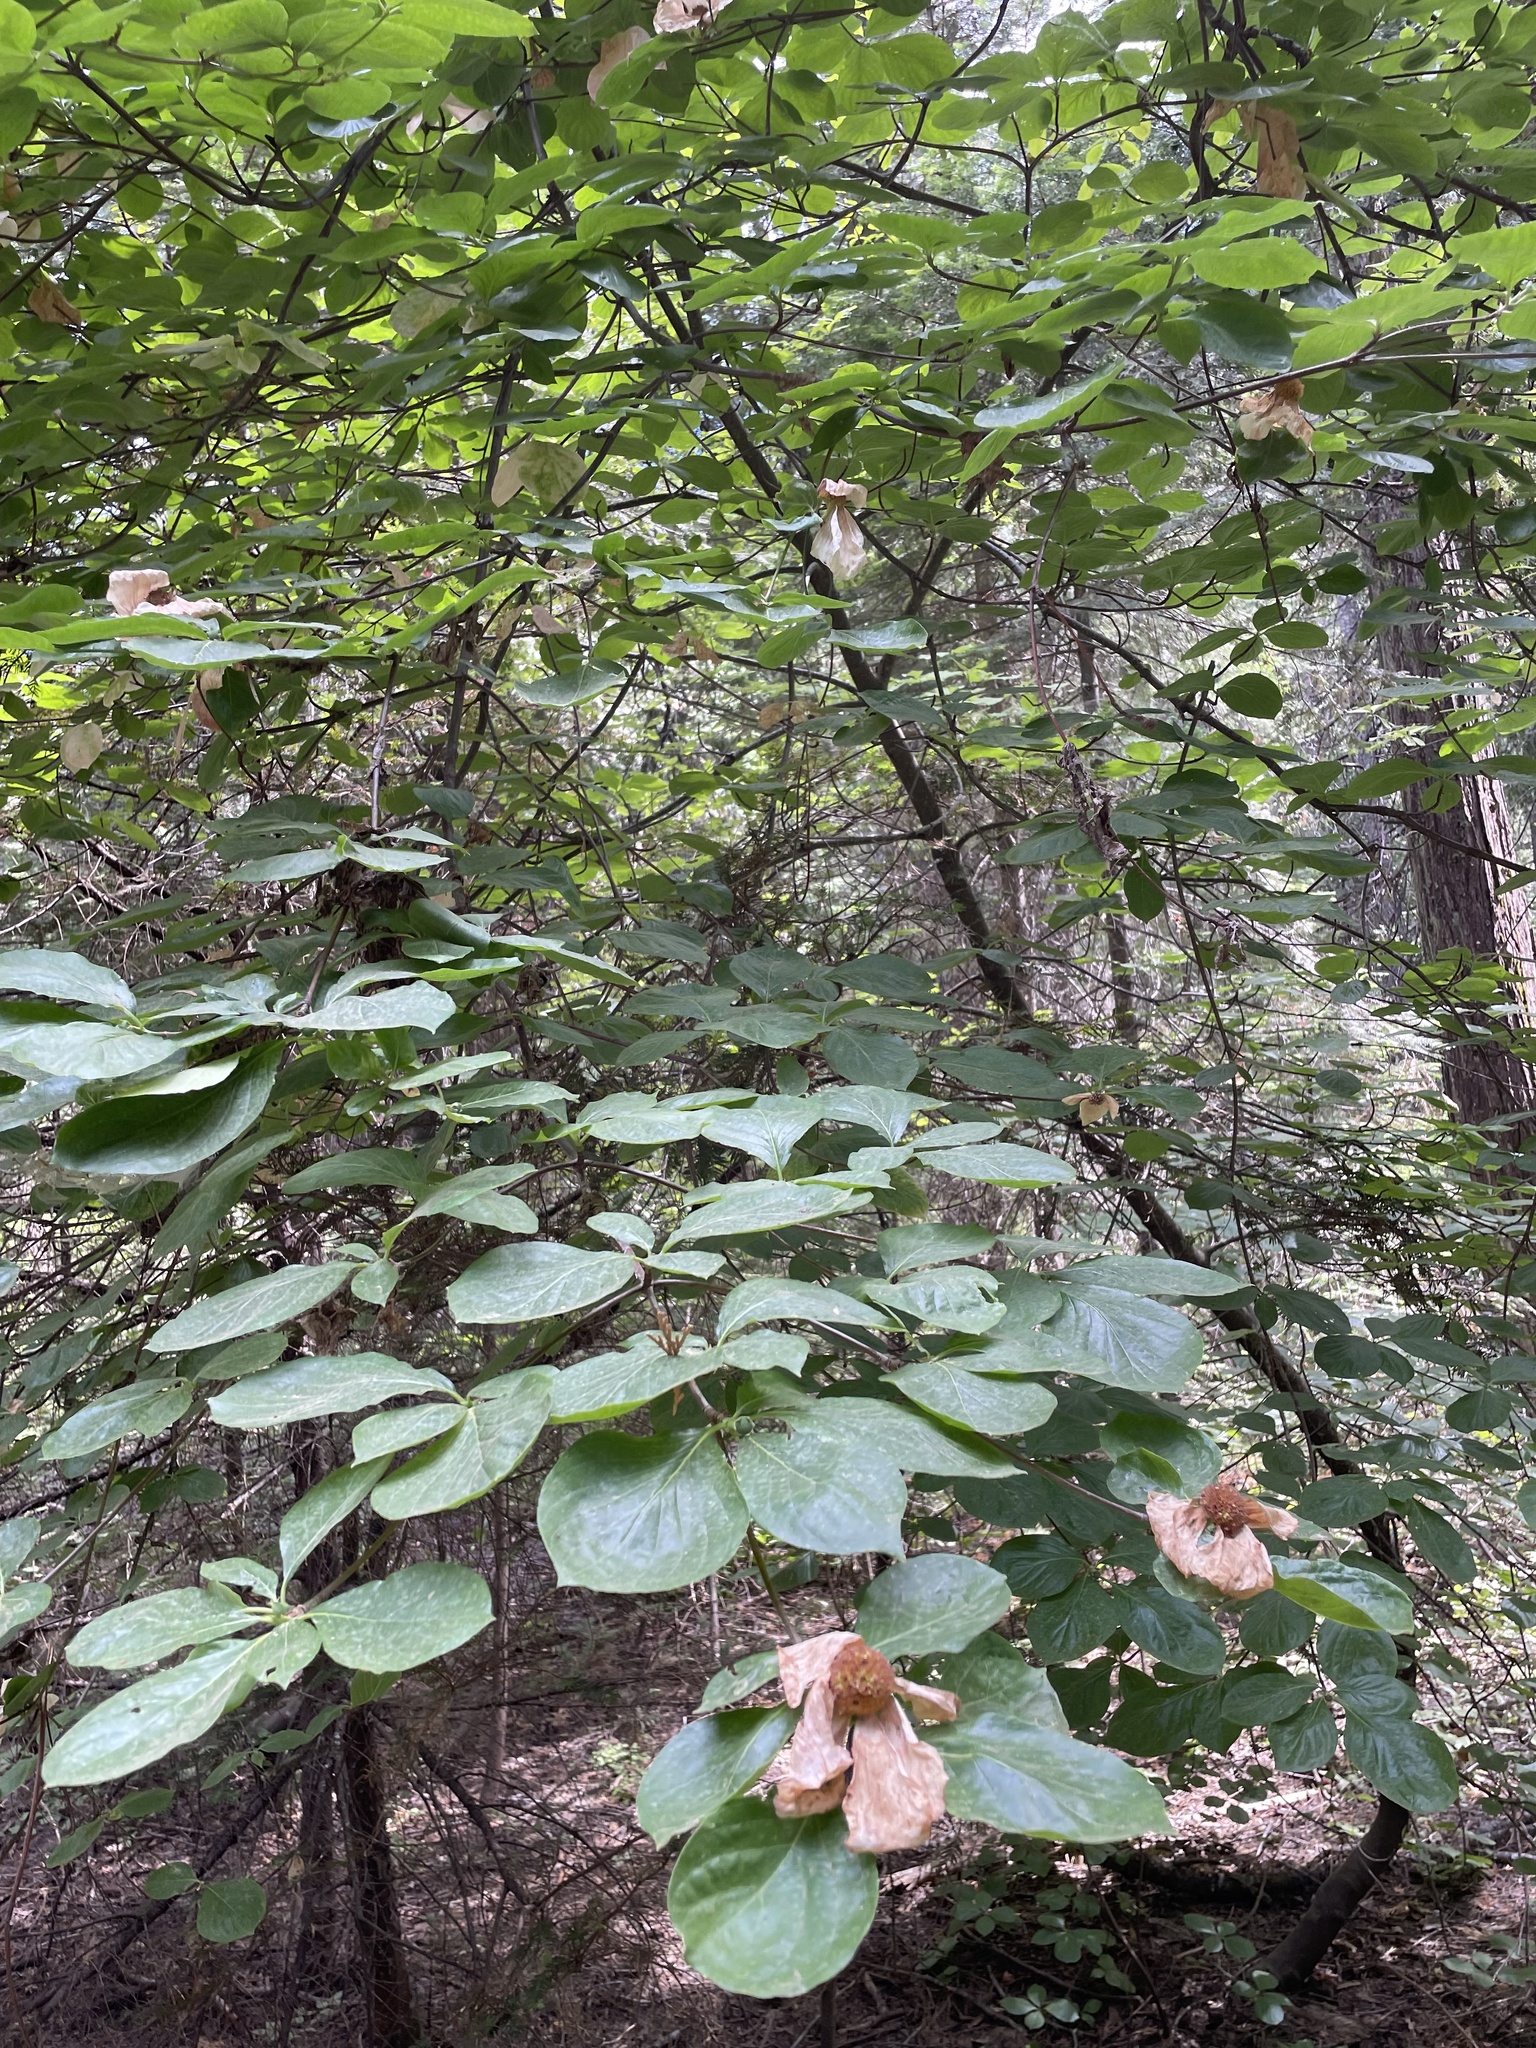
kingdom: Plantae
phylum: Tracheophyta
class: Magnoliopsida
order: Cornales
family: Cornaceae
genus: Cornus
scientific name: Cornus nuttallii
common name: Pacific dogwood
